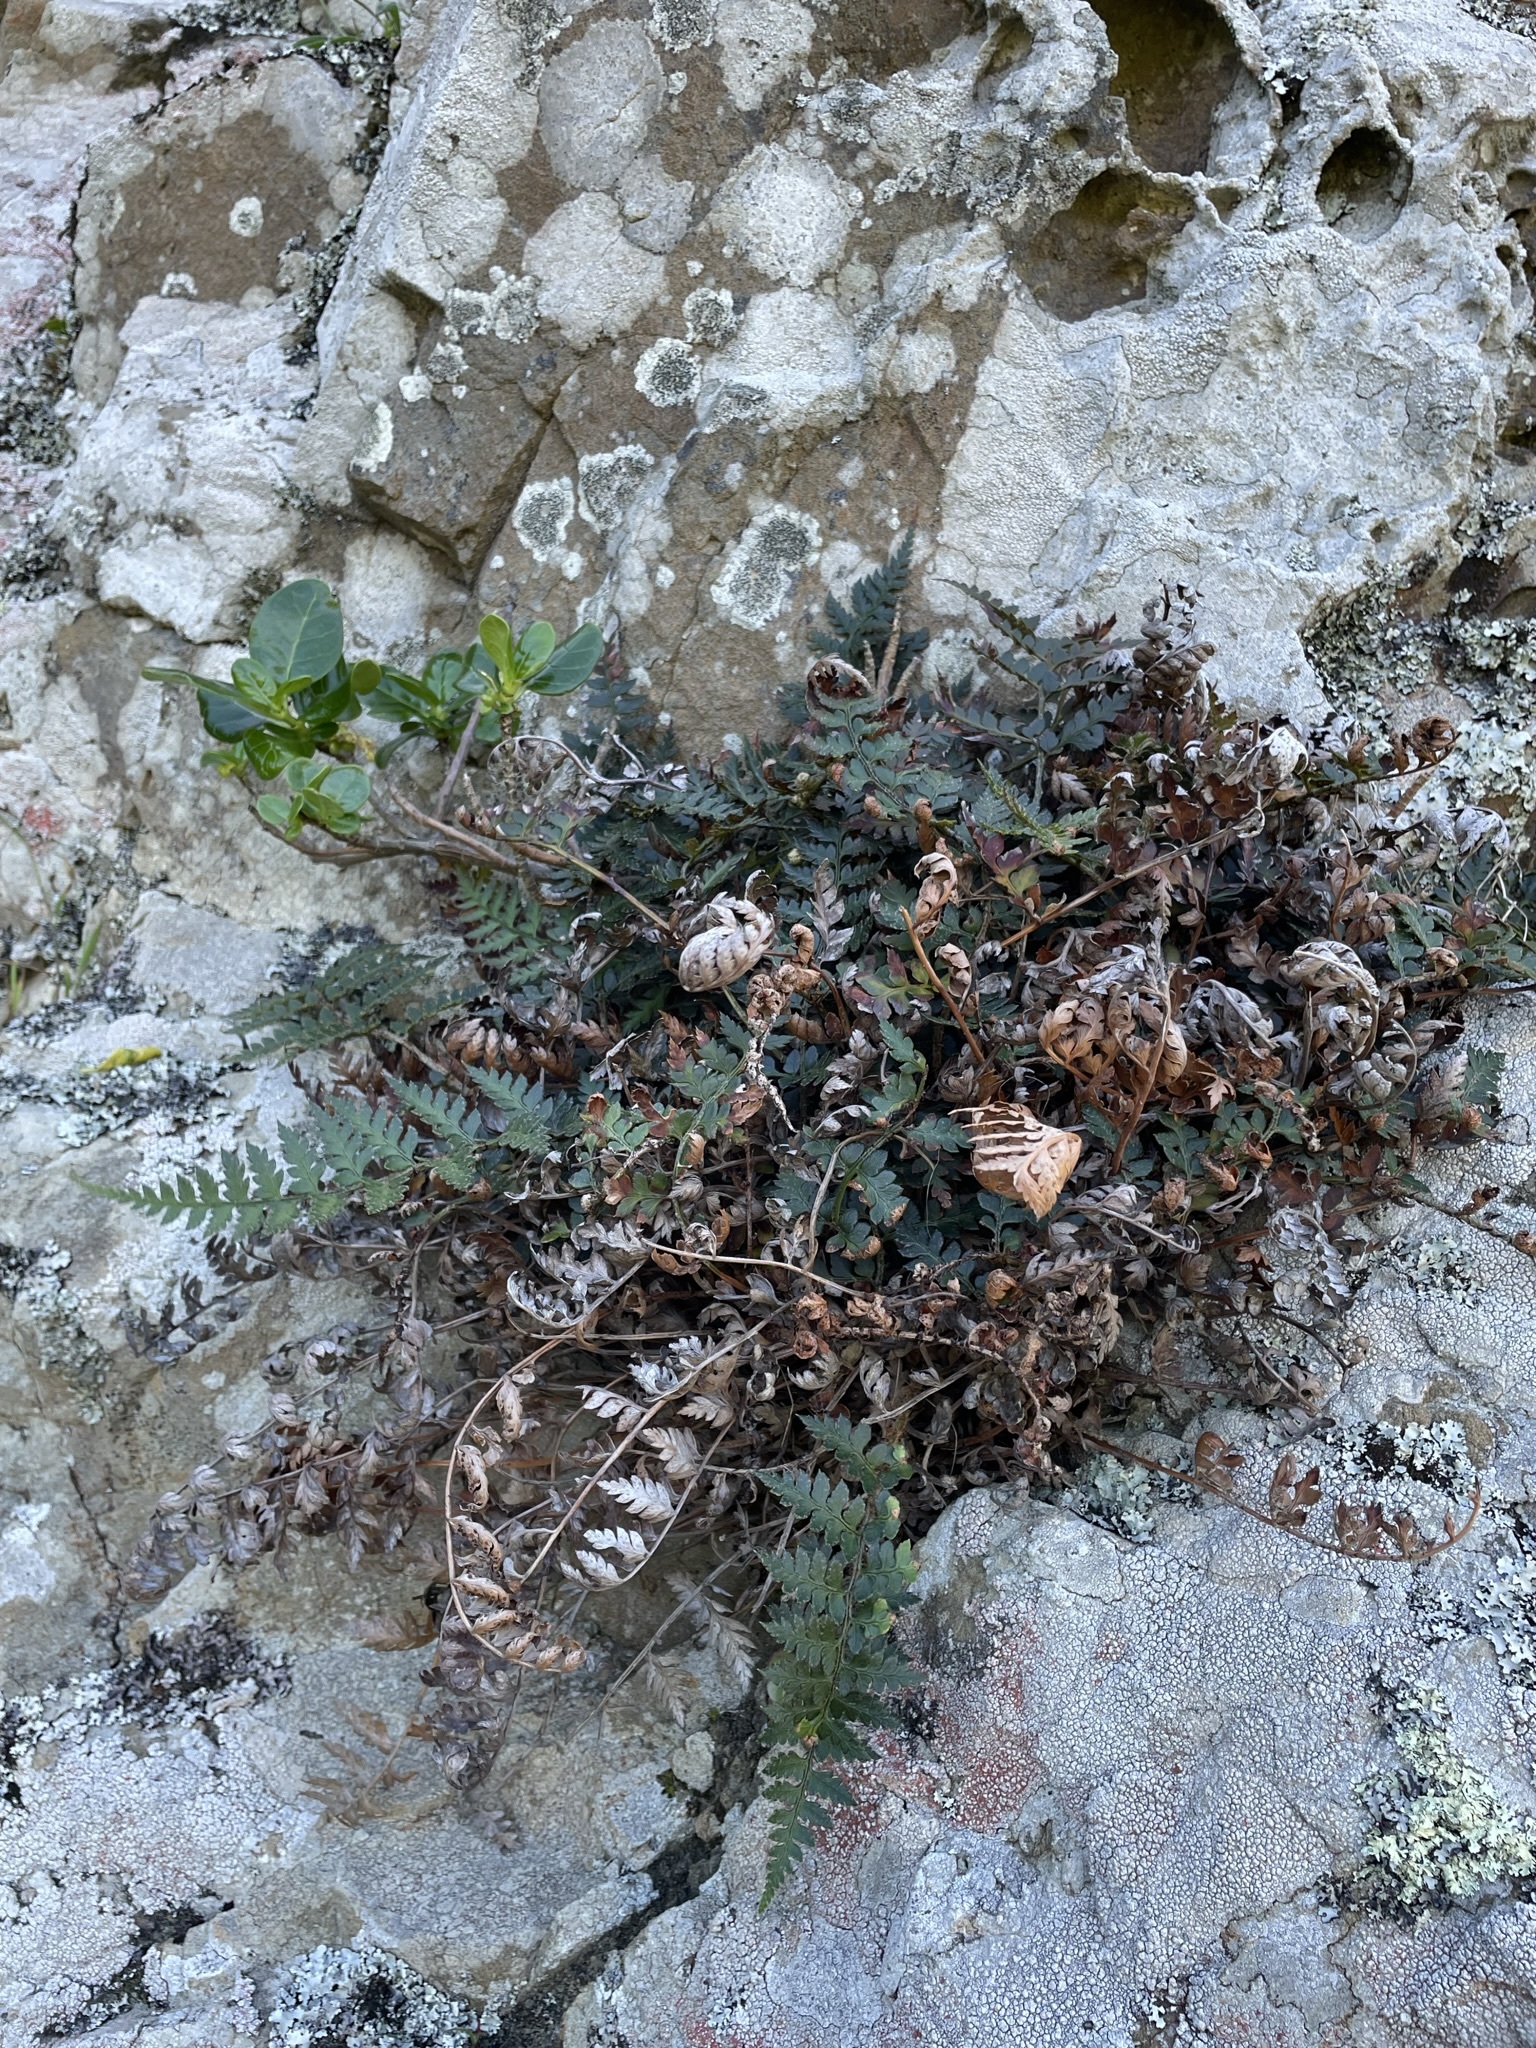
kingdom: Plantae
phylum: Tracheophyta
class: Polypodiopsida
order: Polypodiales
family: Dryopteridaceae
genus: Polystichum
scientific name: Polystichum oculatum
